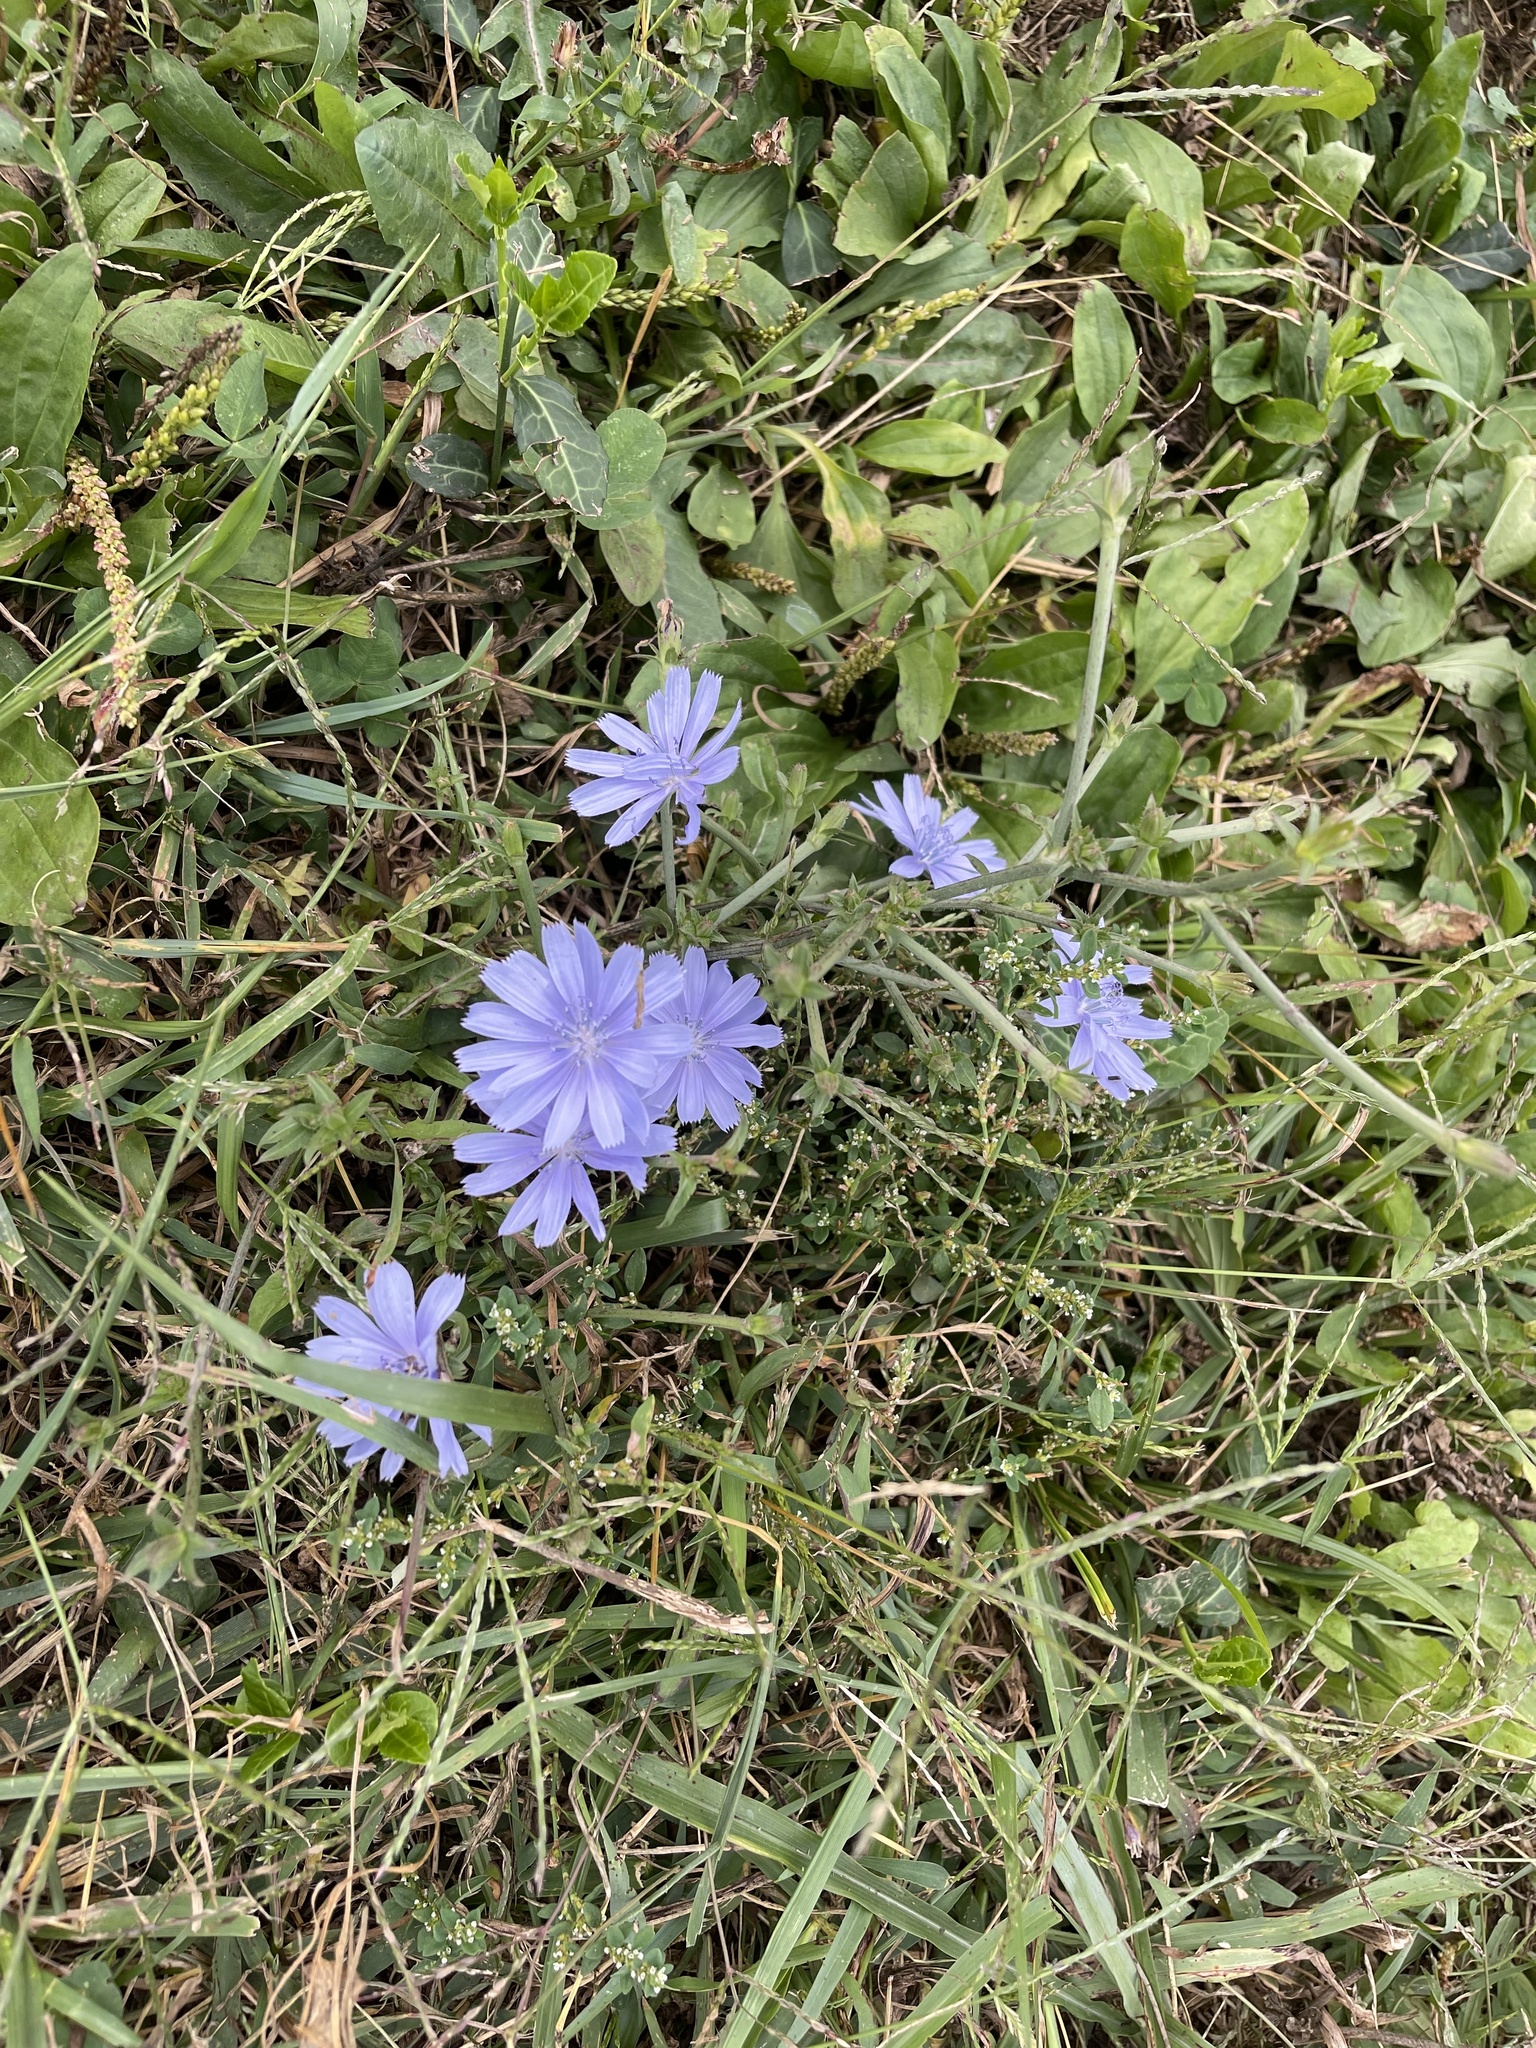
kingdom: Plantae
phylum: Tracheophyta
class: Magnoliopsida
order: Asterales
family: Asteraceae
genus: Cichorium
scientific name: Cichorium intybus
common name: Chicory
